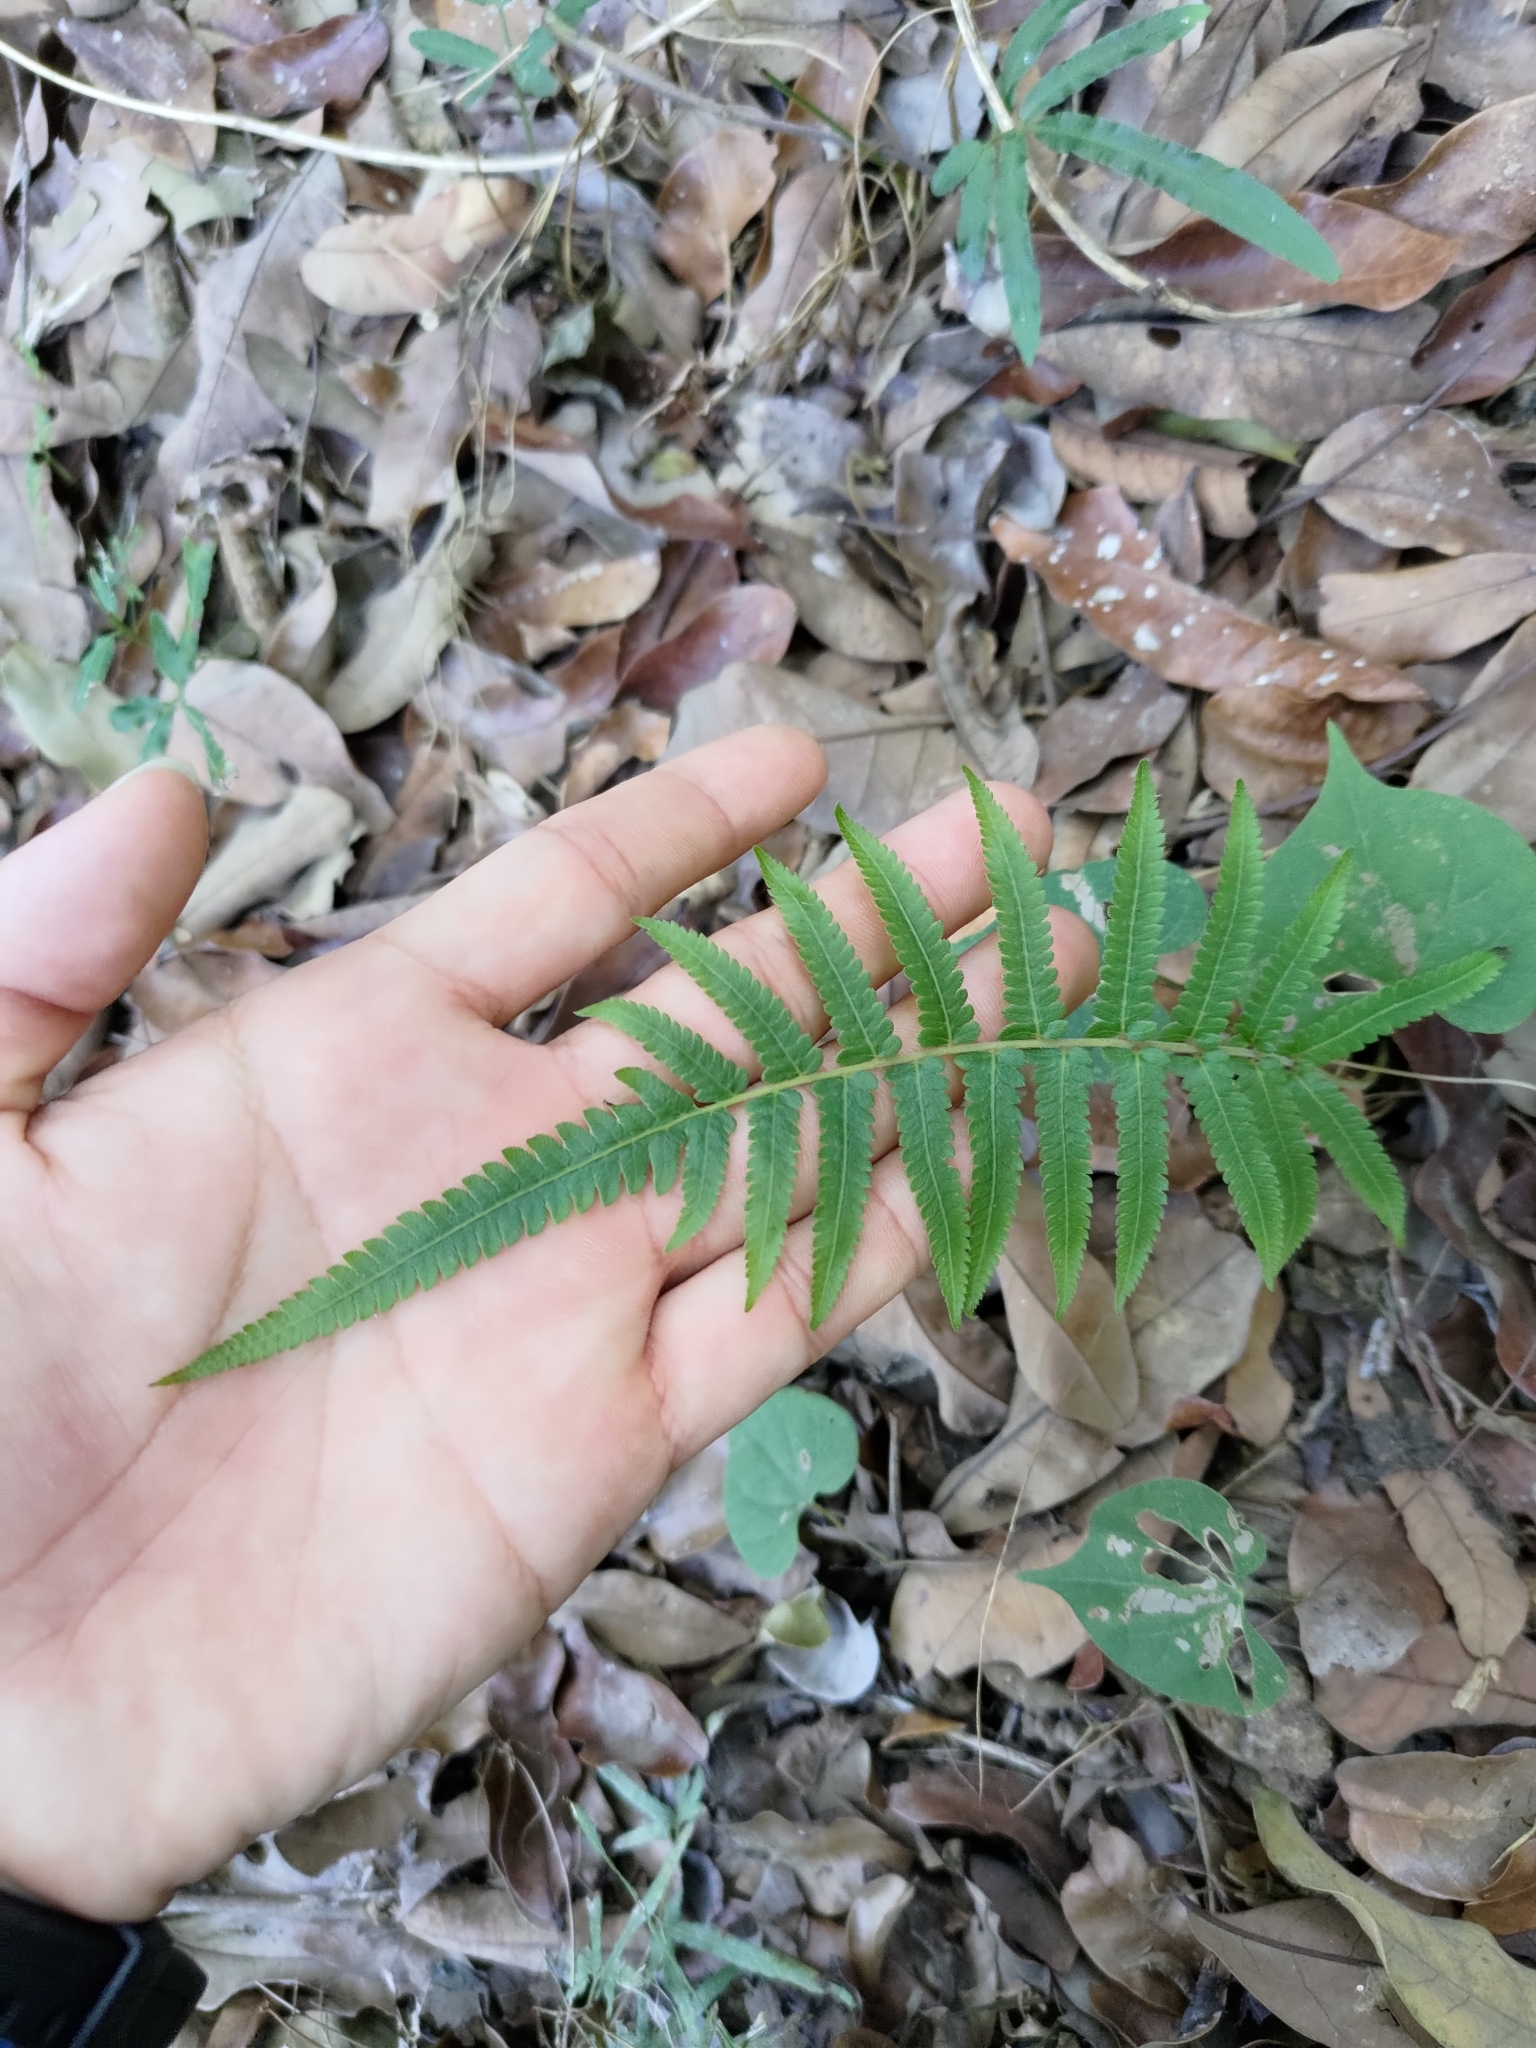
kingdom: Plantae
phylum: Tracheophyta
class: Polypodiopsida
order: Polypodiales
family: Thelypteridaceae
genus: Christella
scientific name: Christella acuminata
